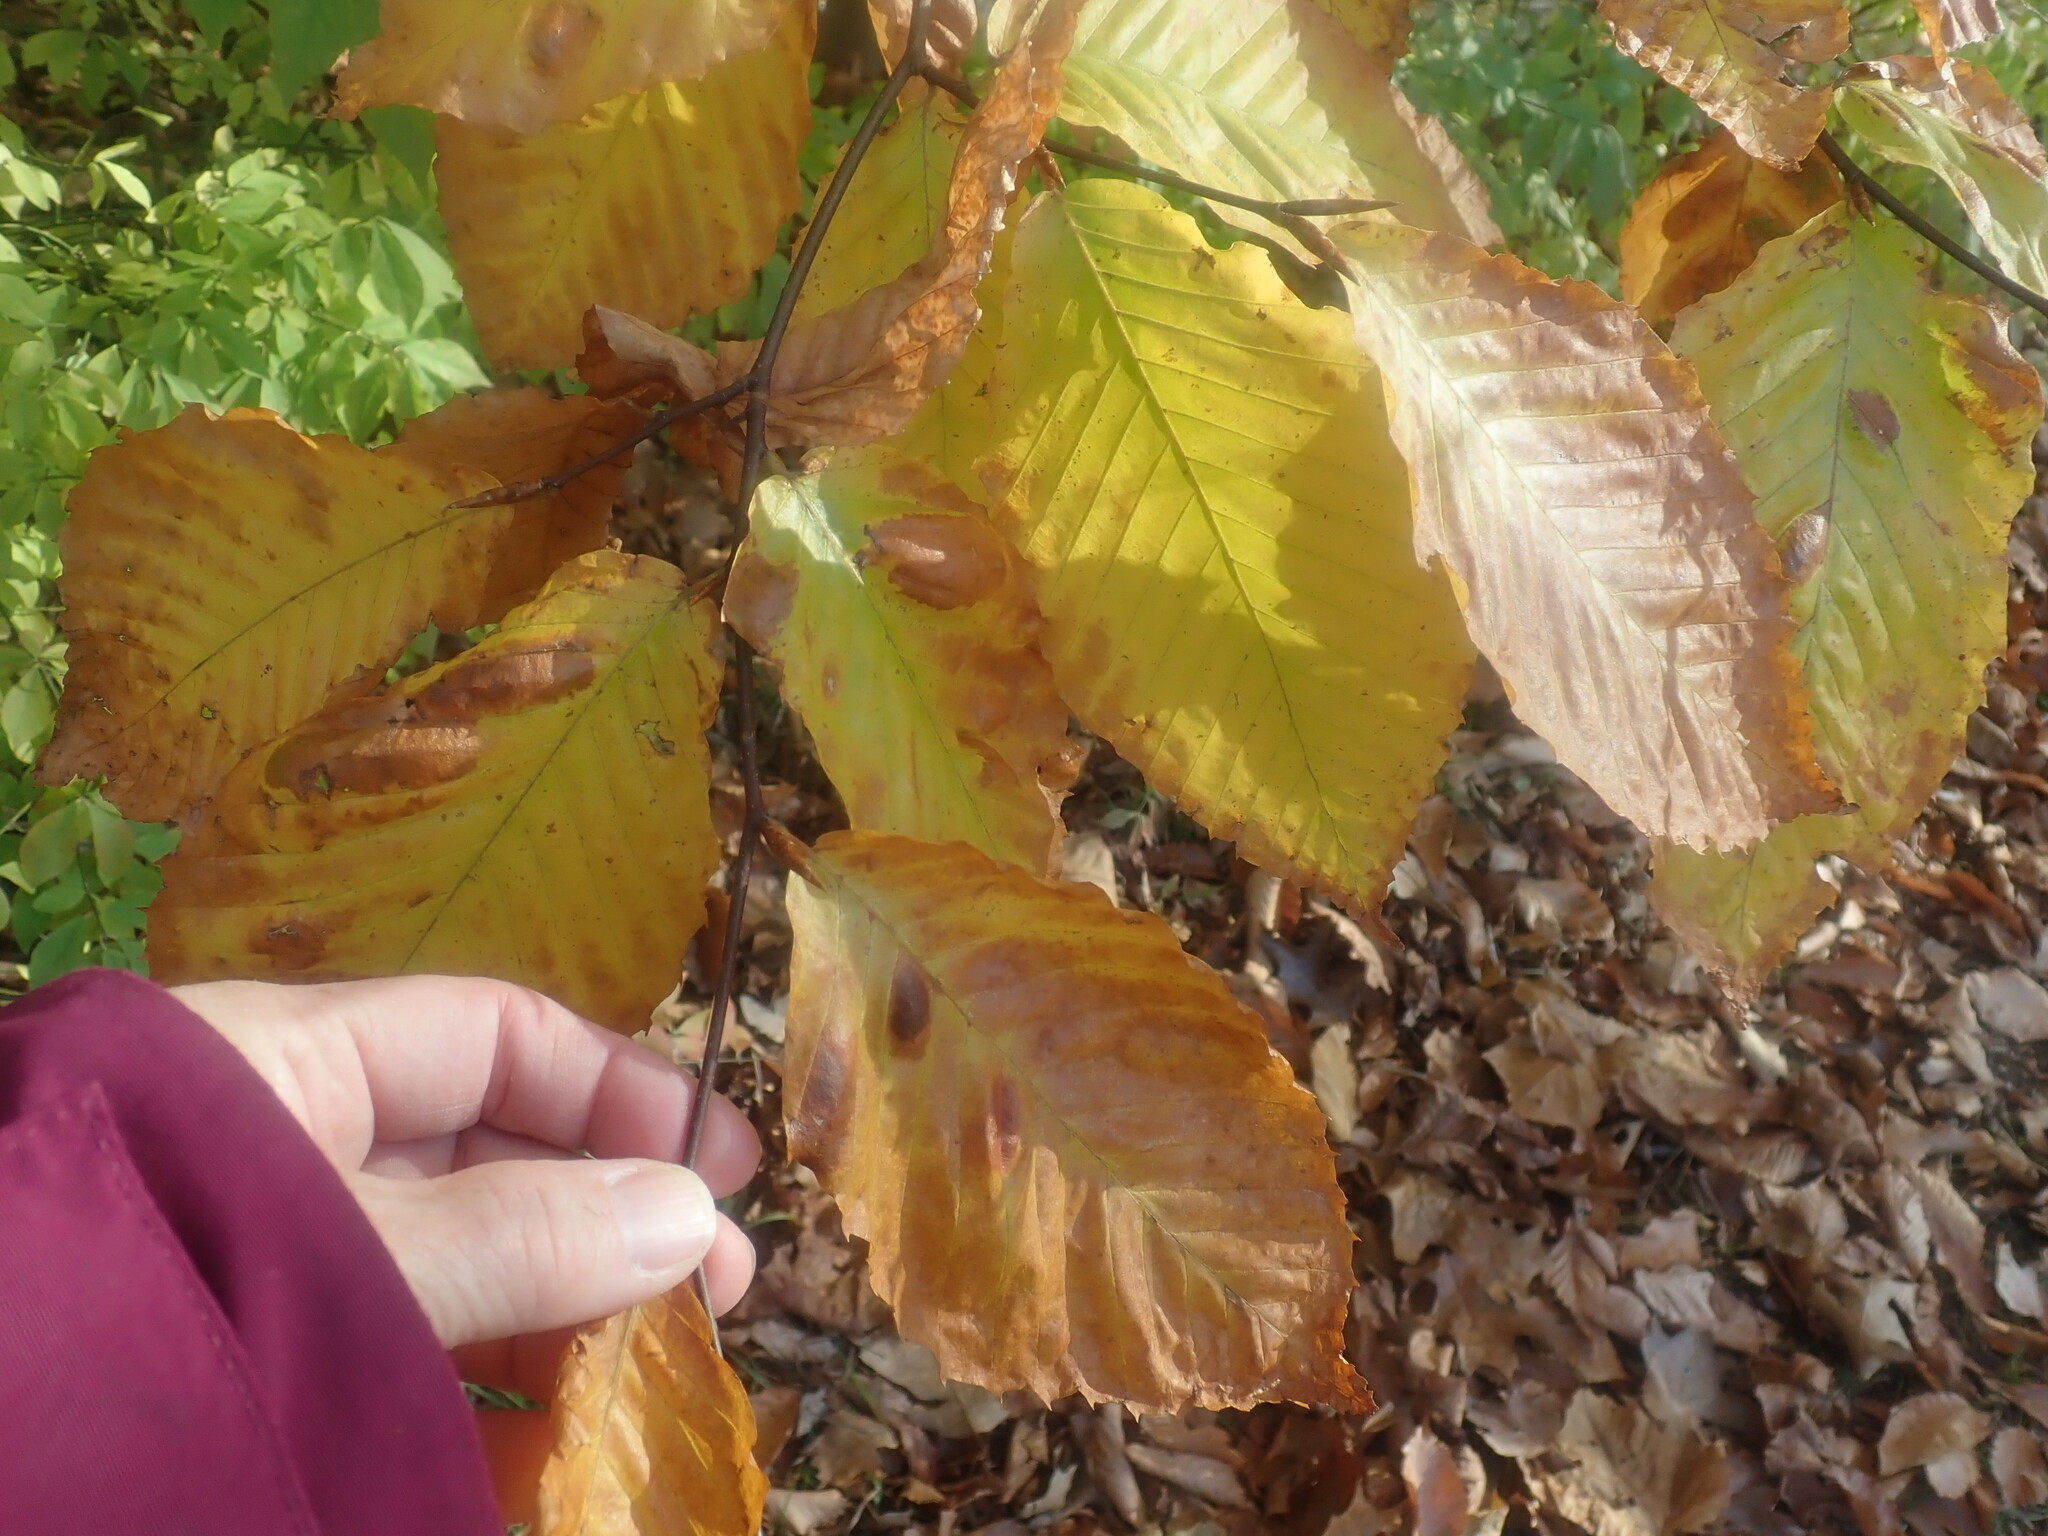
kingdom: Plantae
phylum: Tracheophyta
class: Magnoliopsida
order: Fagales
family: Fagaceae
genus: Fagus
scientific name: Fagus grandifolia
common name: American beech
